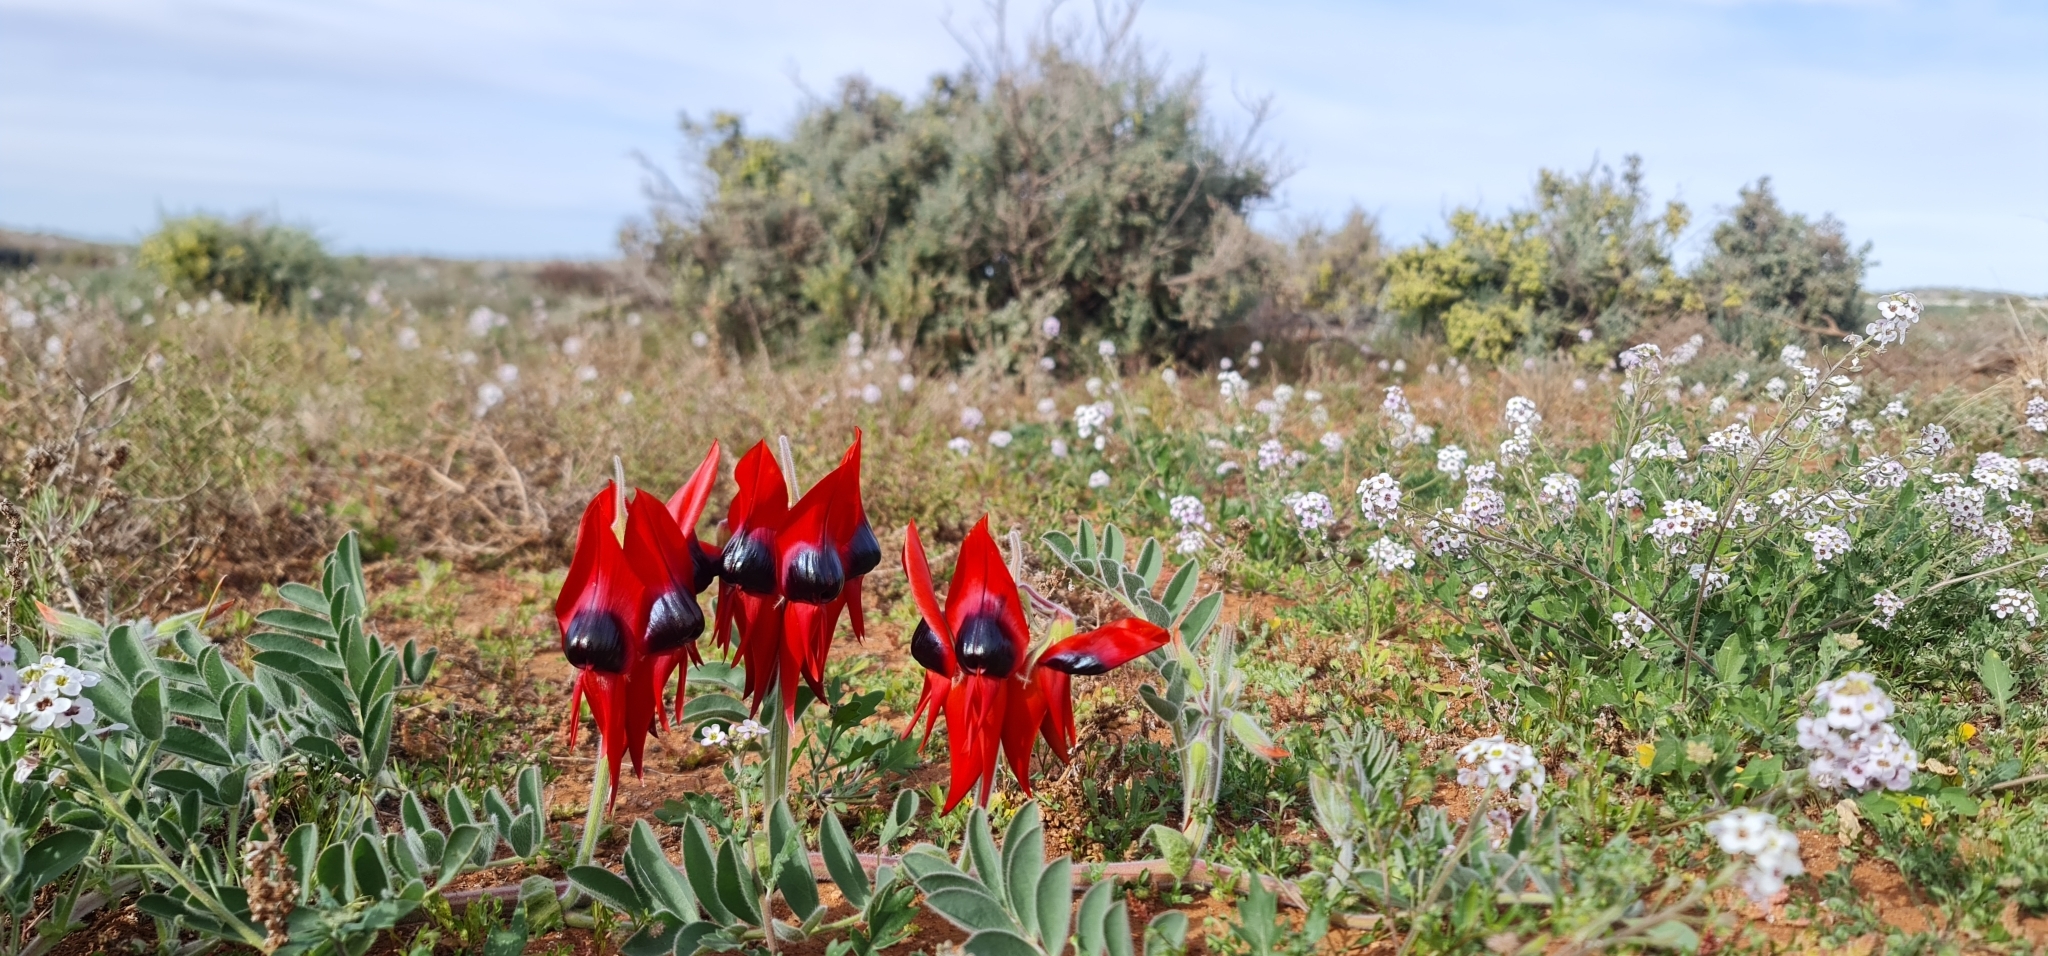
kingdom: Plantae
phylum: Tracheophyta
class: Magnoliopsida
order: Fabales
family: Fabaceae
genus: Swainsona
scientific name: Swainsona formosa
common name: Sturt's desert-pea
